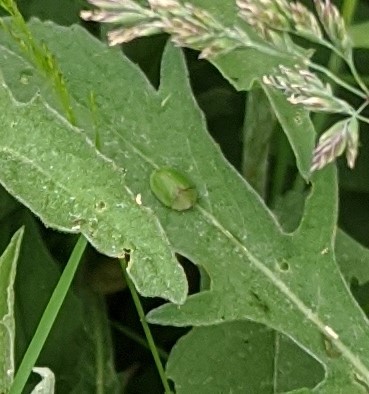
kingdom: Animalia
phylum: Arthropoda
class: Insecta
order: Coleoptera
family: Chrysomelidae
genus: Cassida
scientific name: Cassida rubiginosa
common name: Thistle tortoise beetle
